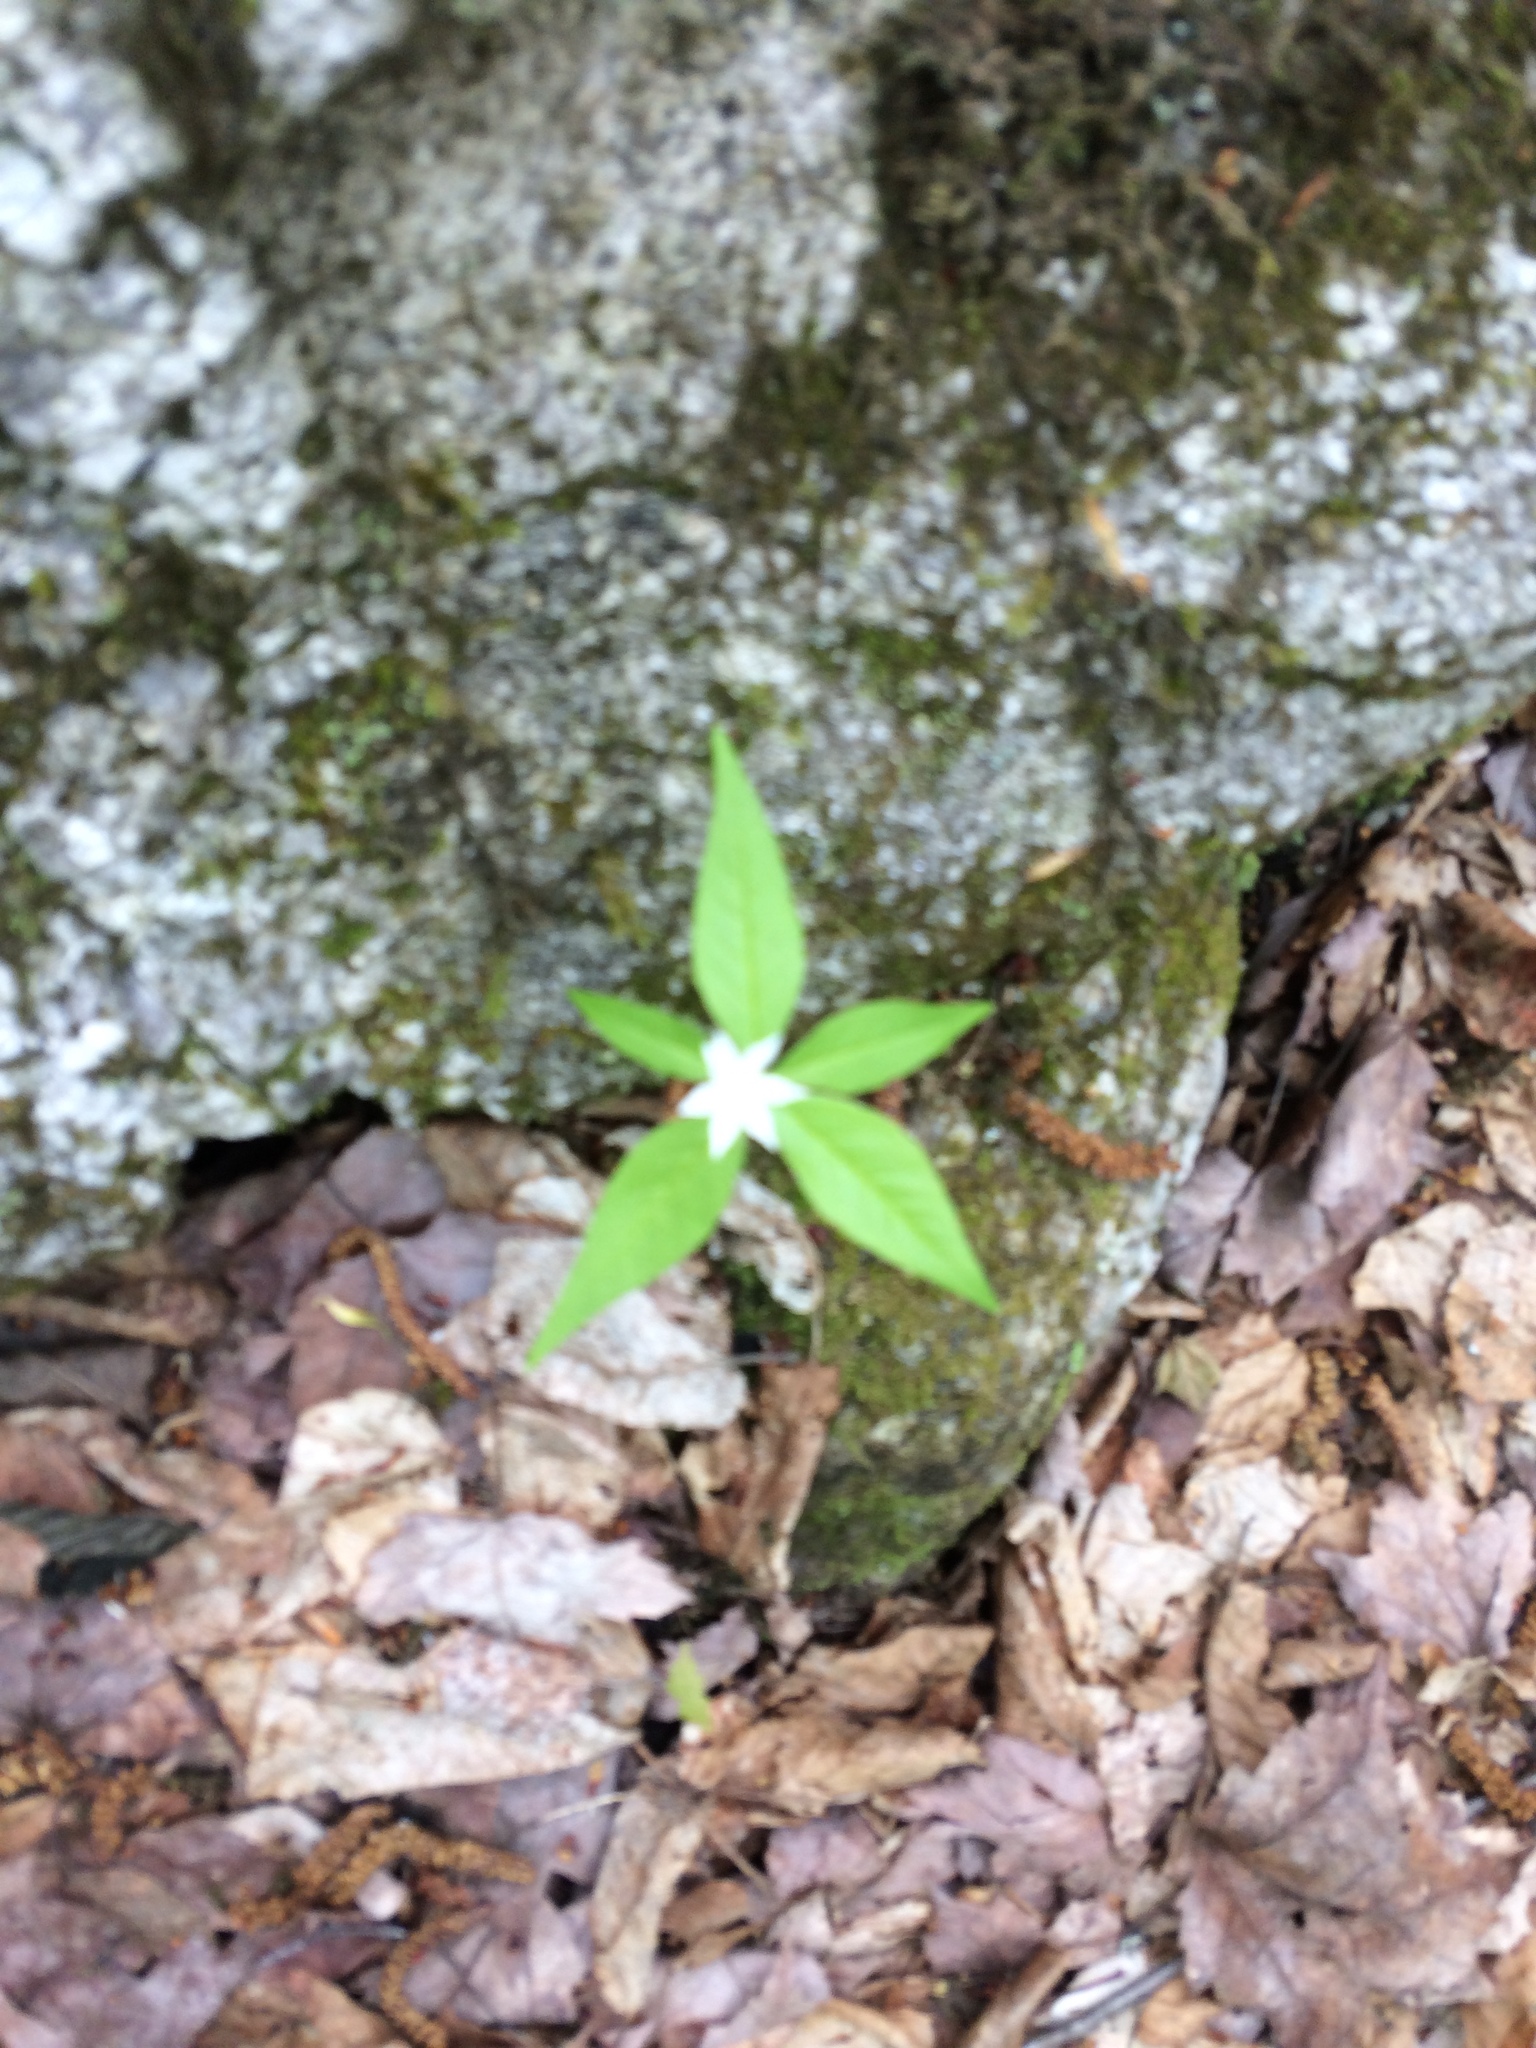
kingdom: Plantae
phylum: Tracheophyta
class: Magnoliopsida
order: Ericales
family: Primulaceae
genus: Lysimachia
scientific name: Lysimachia borealis
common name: American starflower
